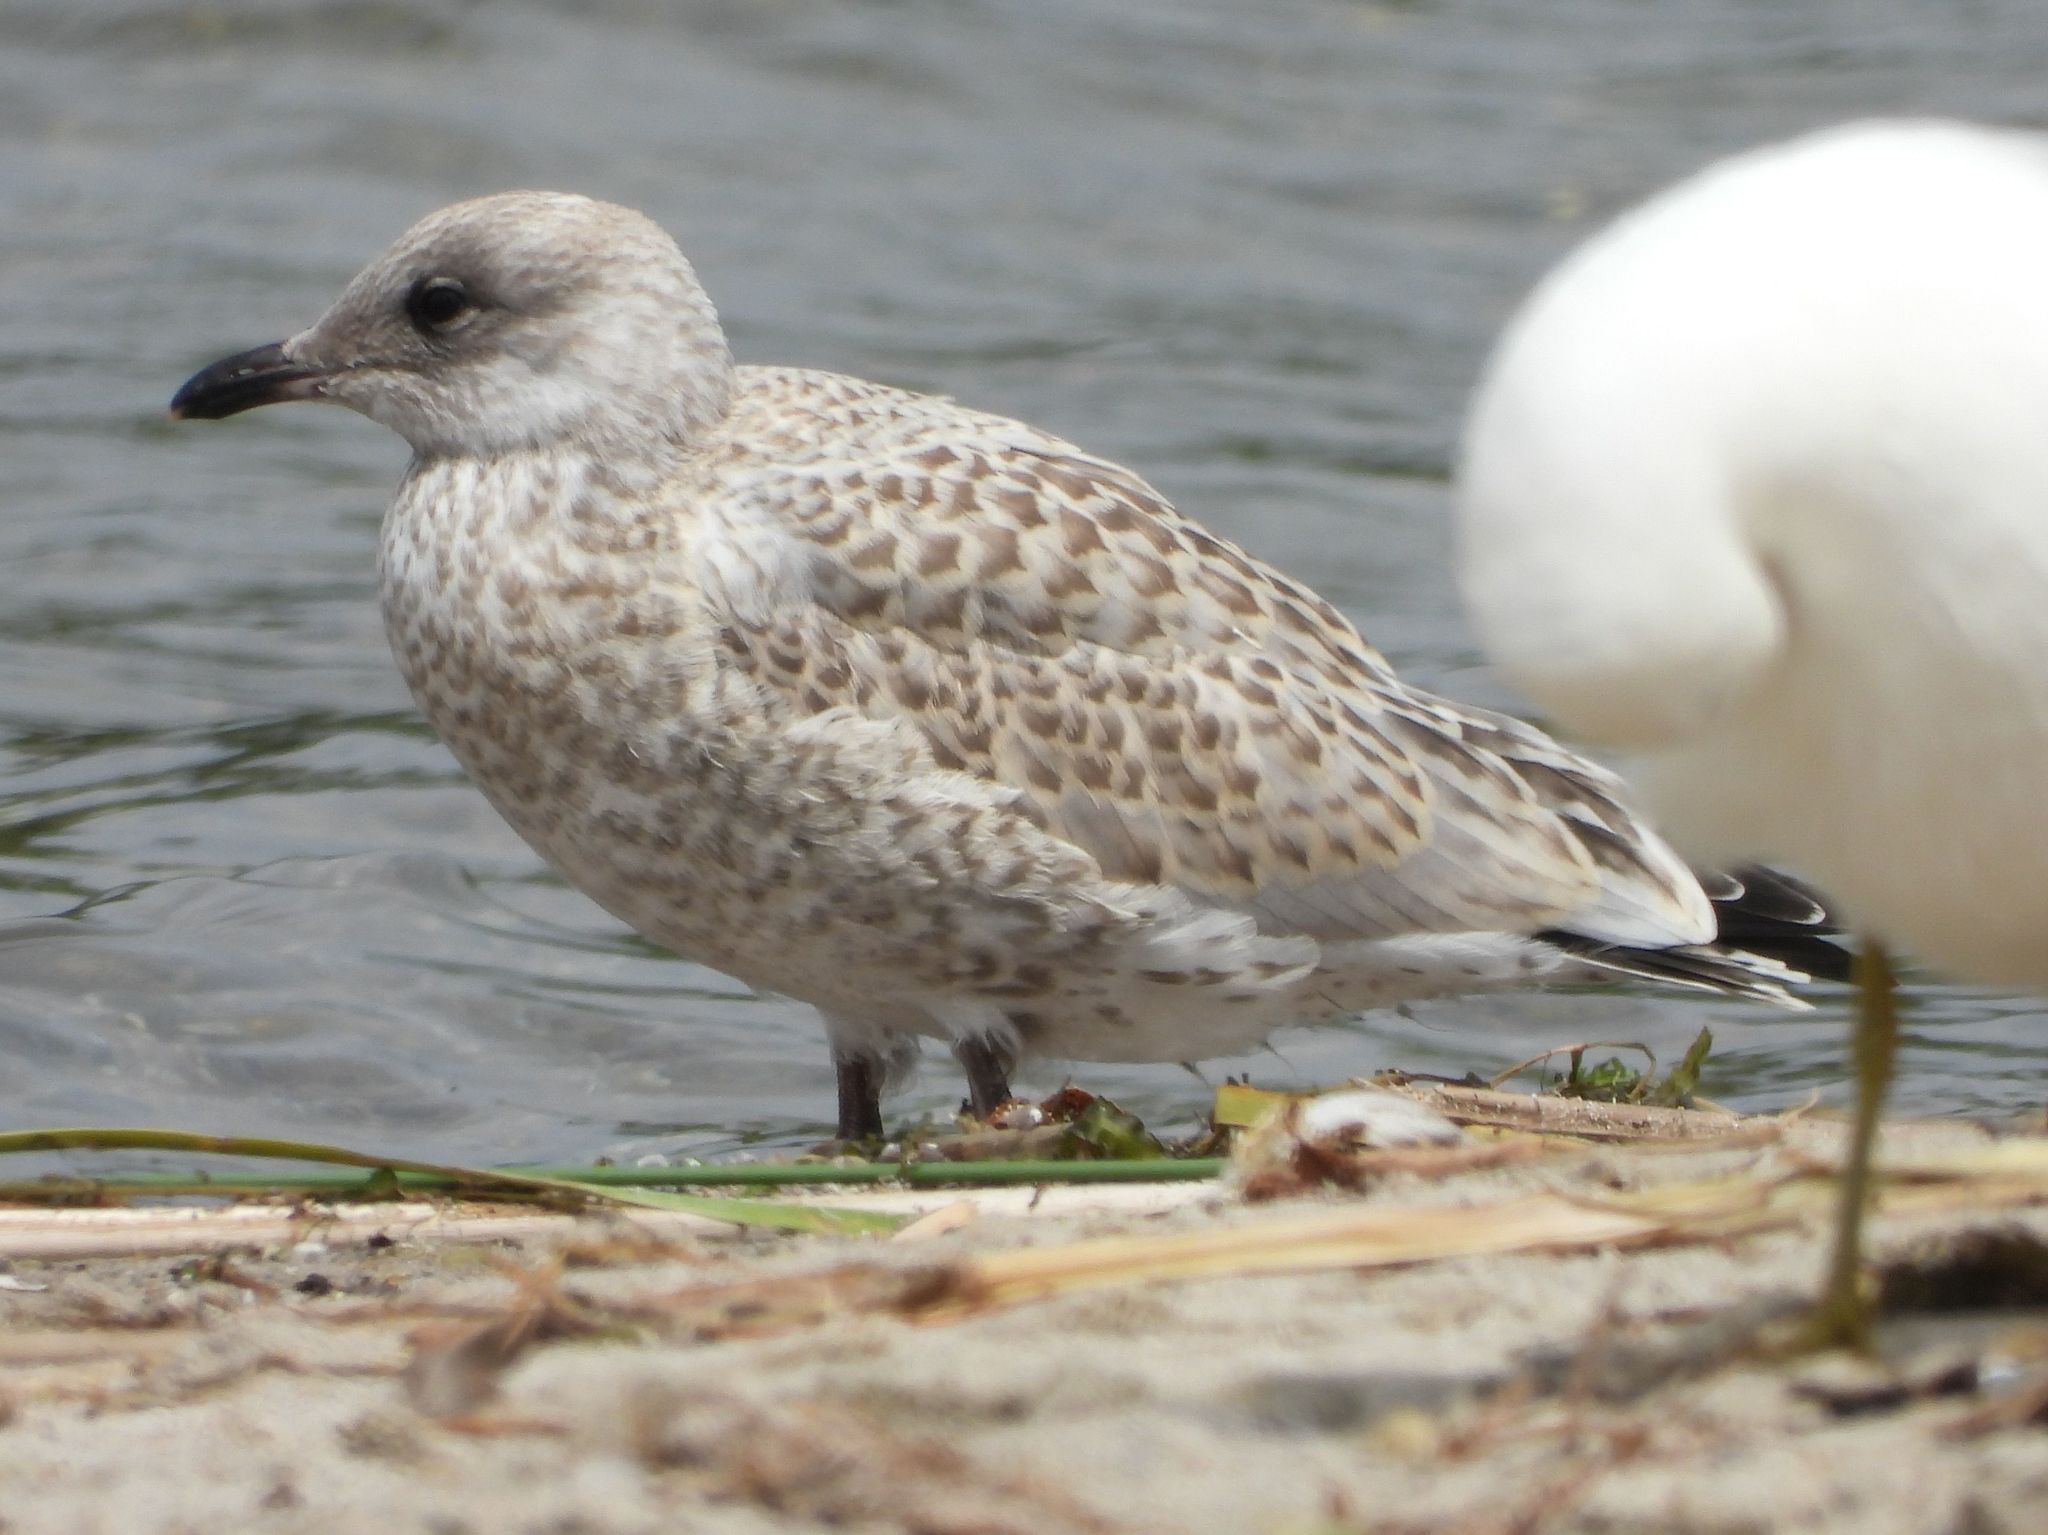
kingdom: Animalia
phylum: Chordata
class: Aves
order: Charadriiformes
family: Laridae
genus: Larus
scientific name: Larus delawarensis
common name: Ring-billed gull
